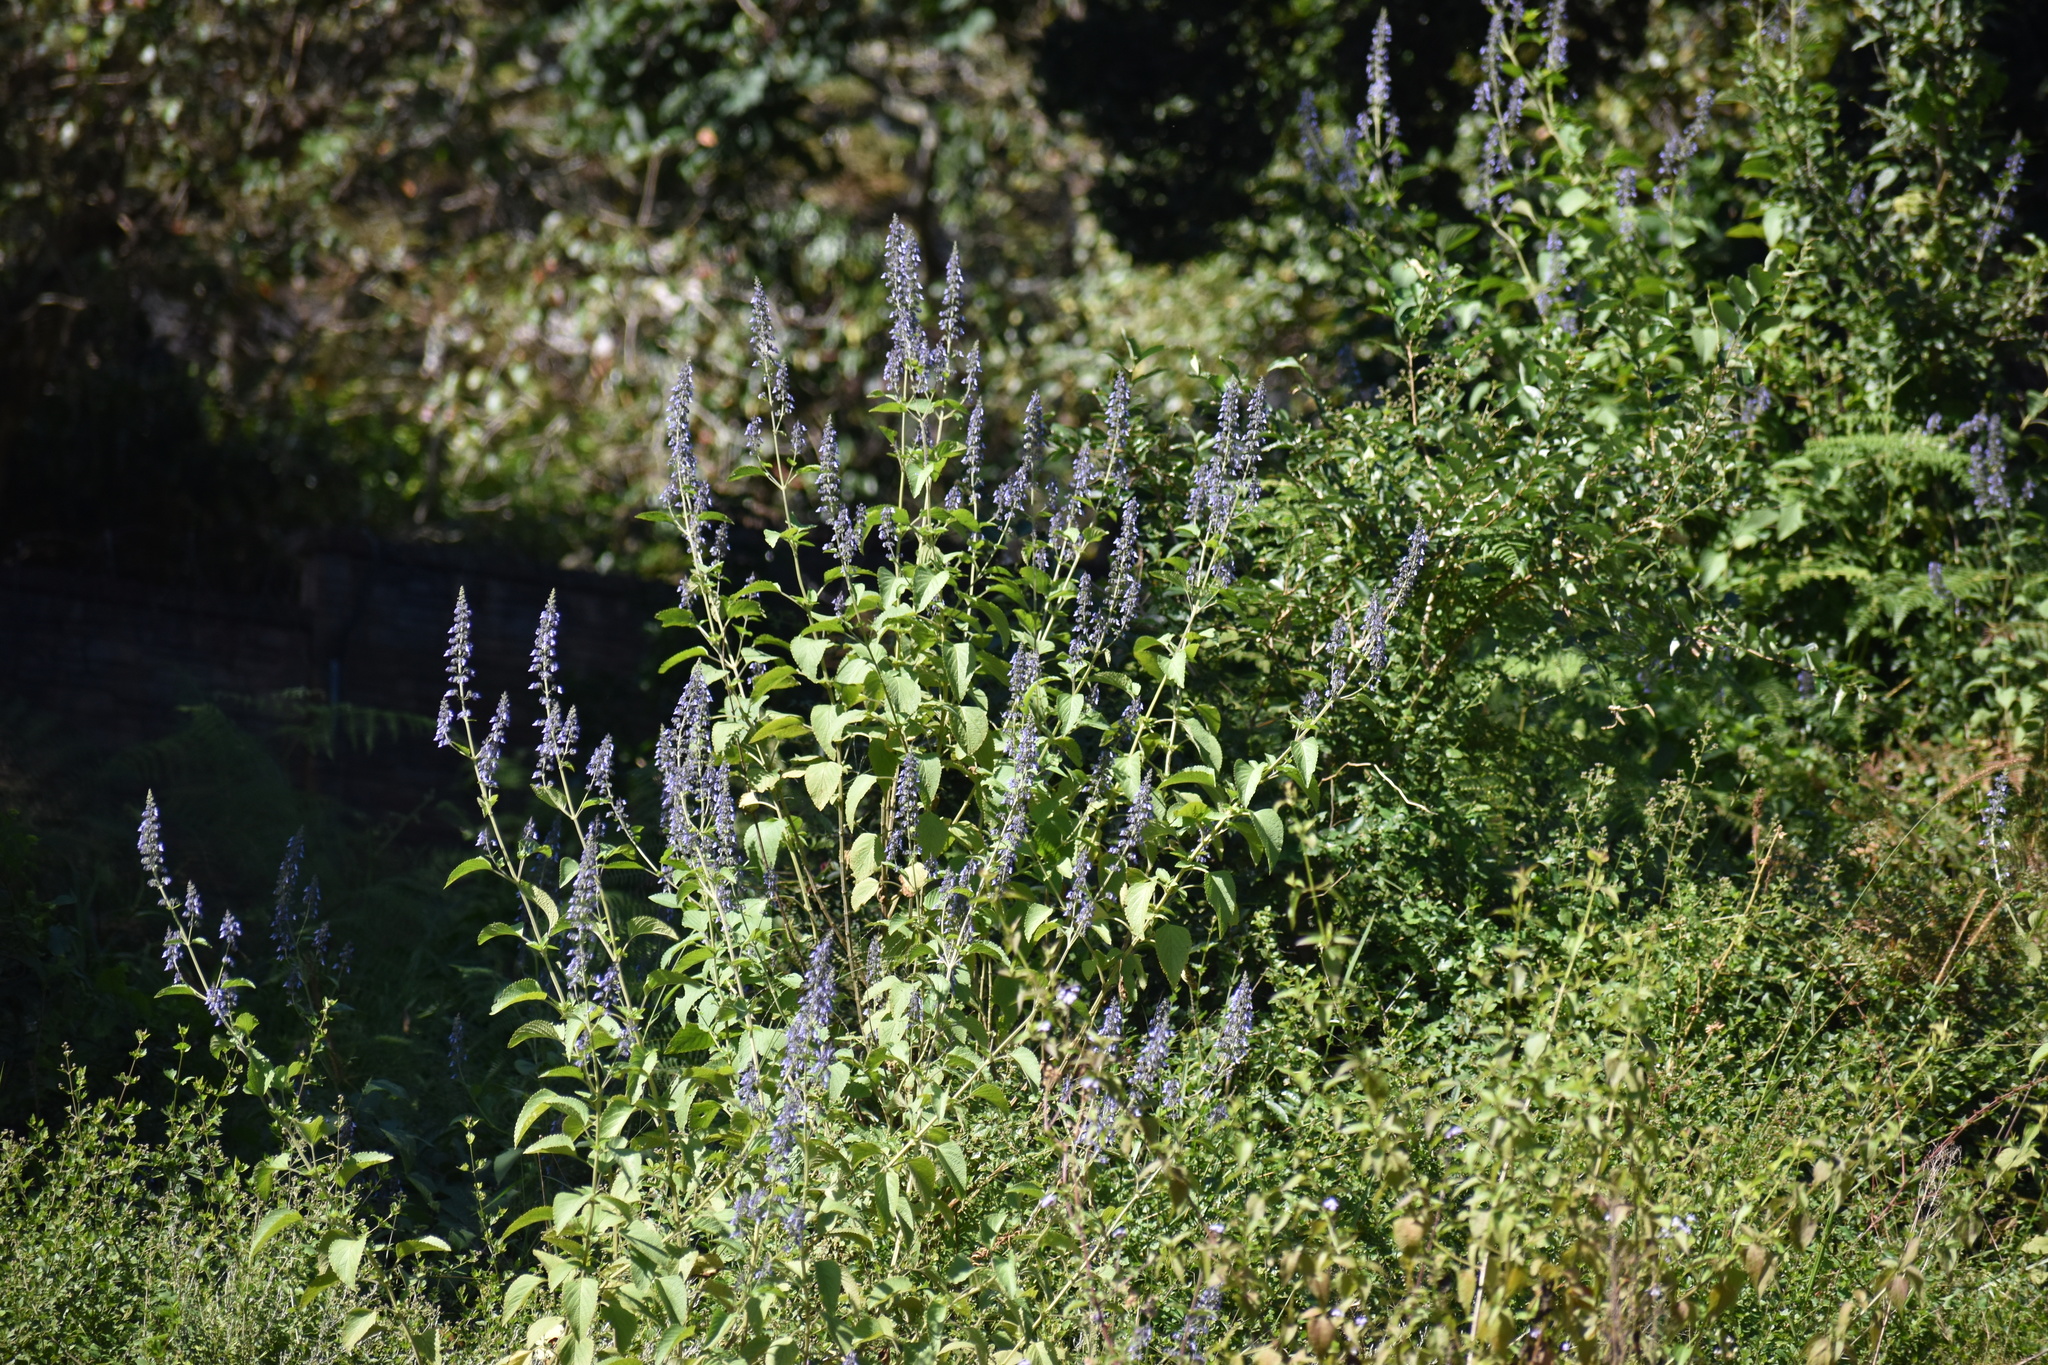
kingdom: Plantae
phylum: Tracheophyta
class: Magnoliopsida
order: Lamiales
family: Lamiaceae
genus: Coleus
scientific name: Coleus hereroensis
